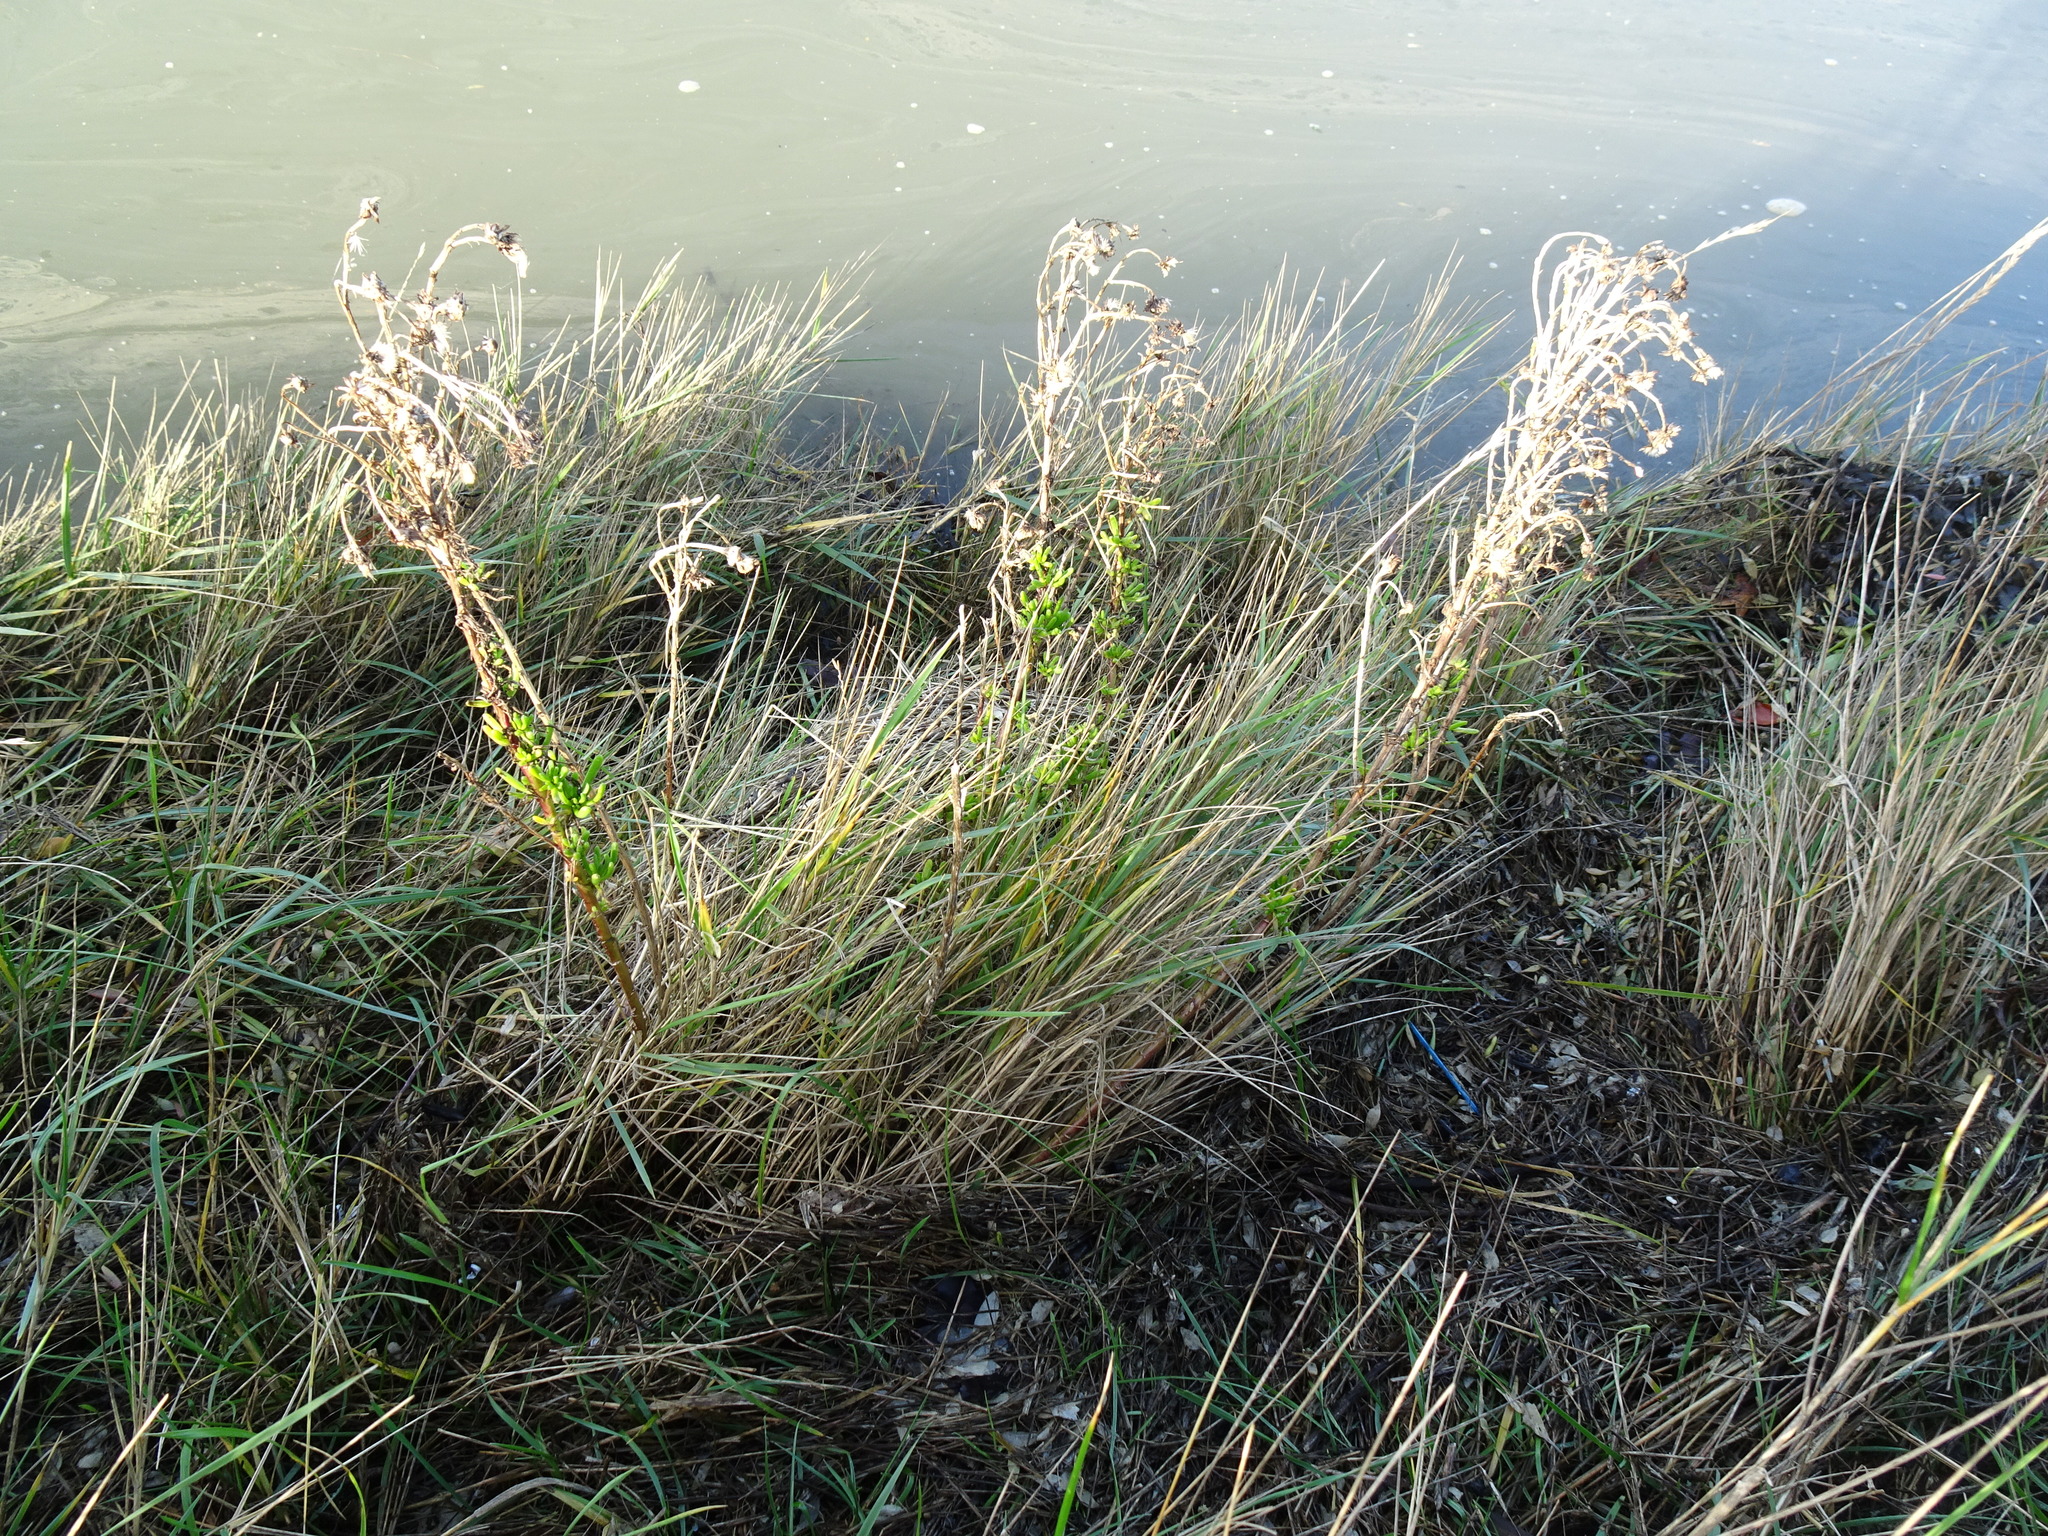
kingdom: Plantae
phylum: Tracheophyta
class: Magnoliopsida
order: Asterales
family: Asteraceae
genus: Limbarda
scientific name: Limbarda crithmoides
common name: Golden samphire
